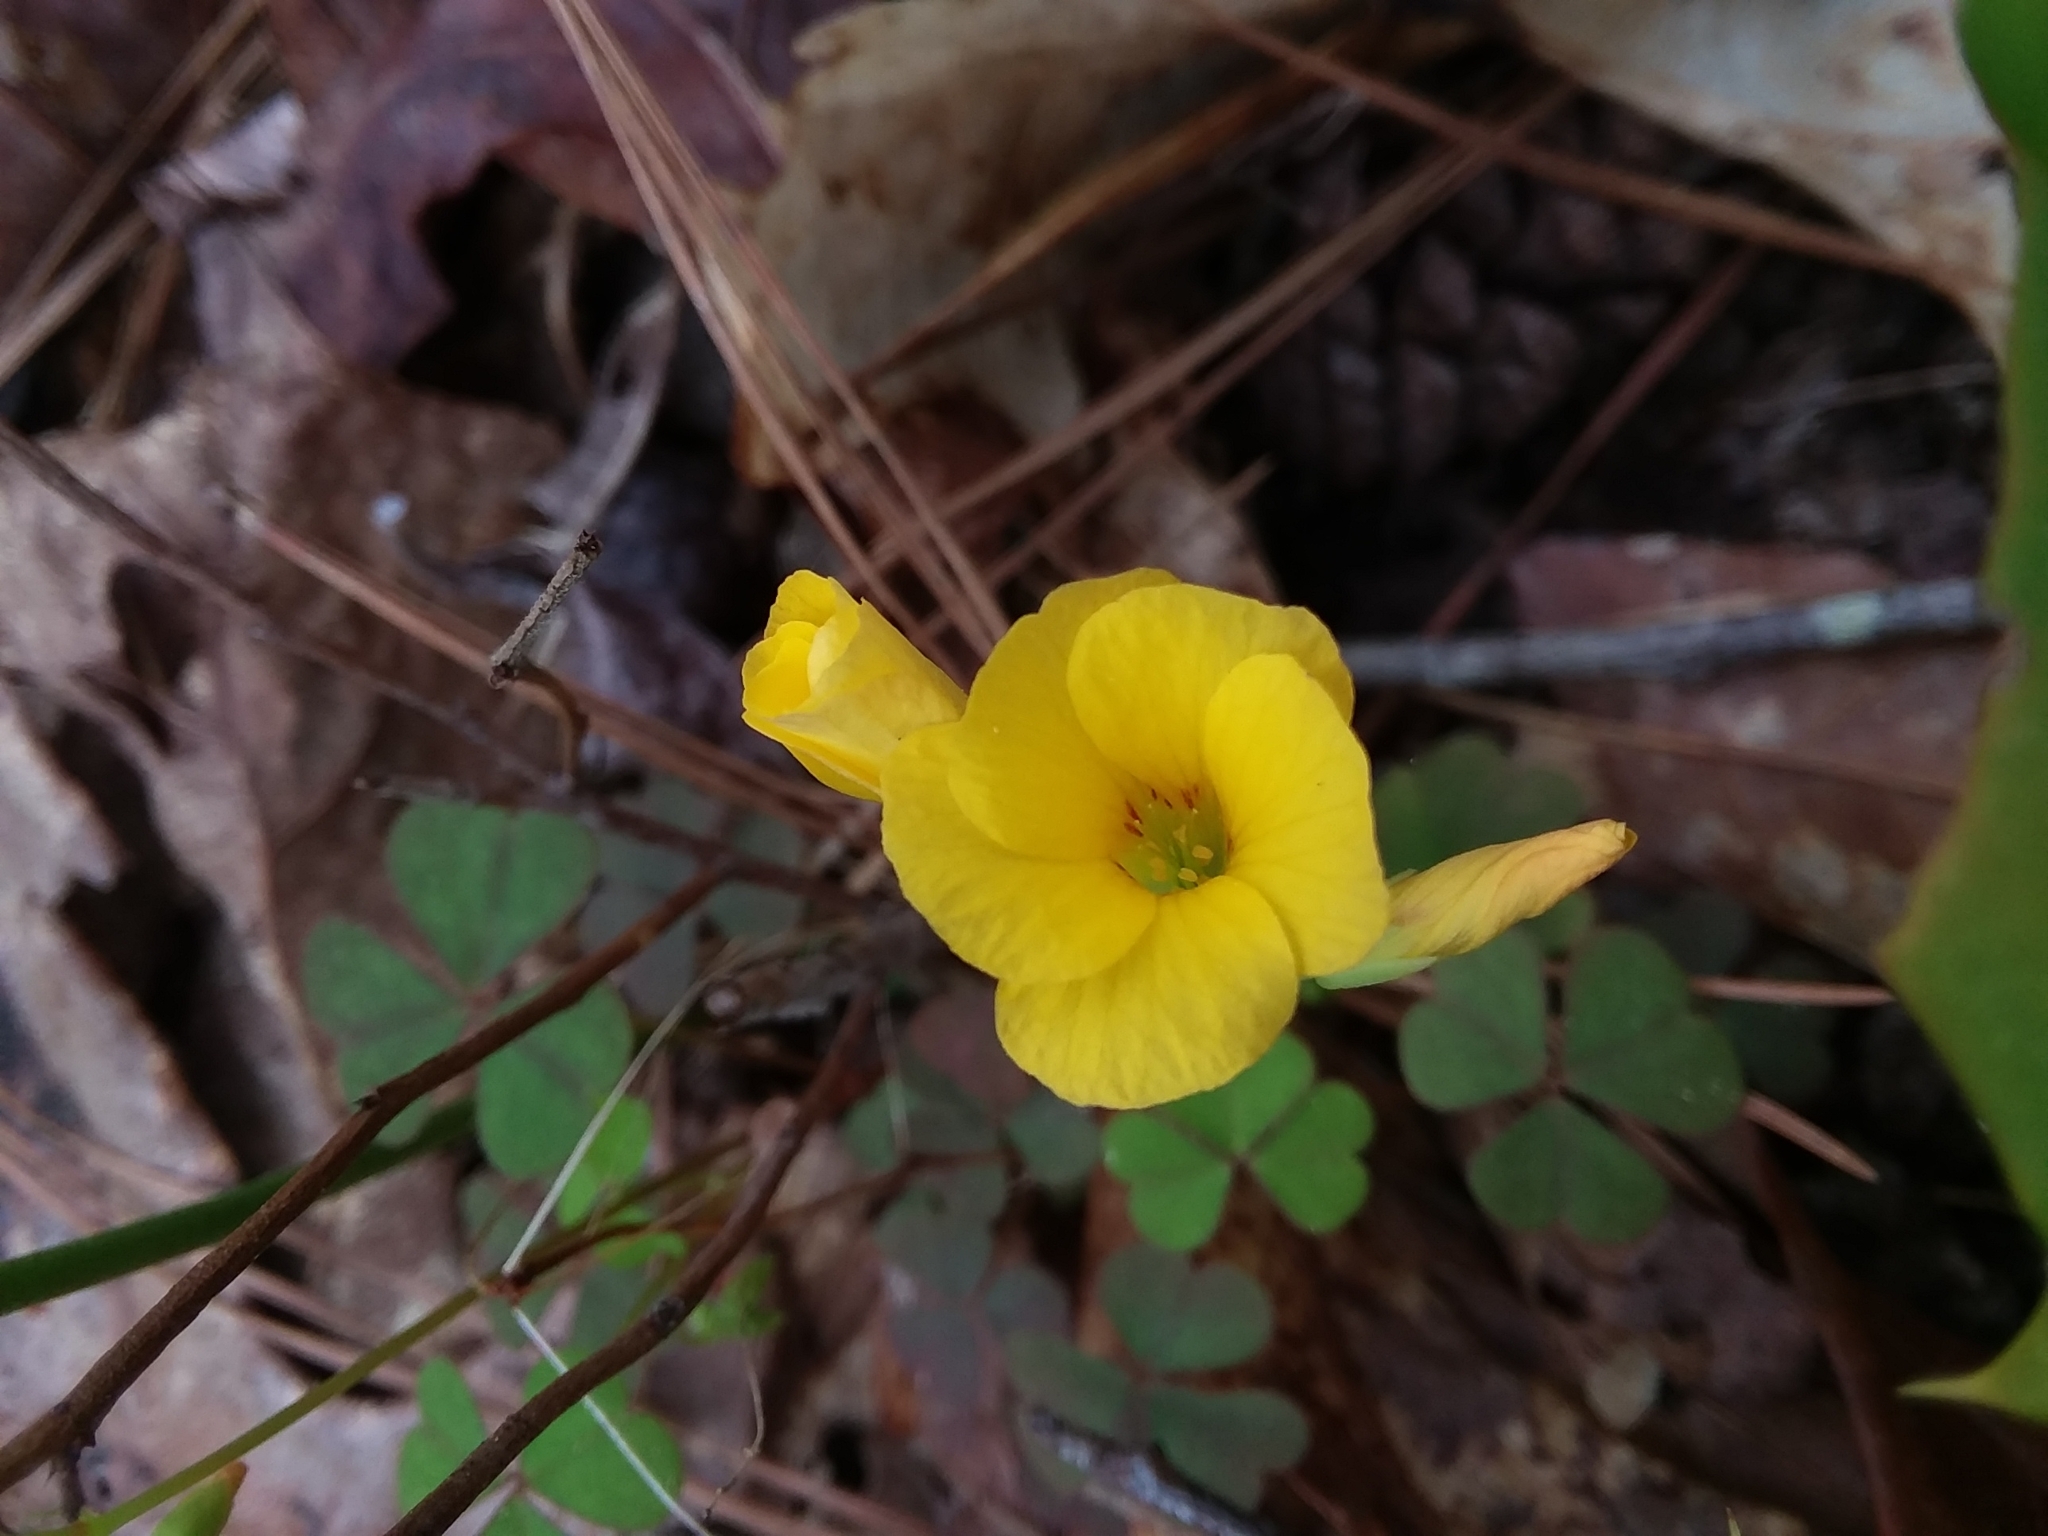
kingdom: Plantae
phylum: Tracheophyta
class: Magnoliopsida
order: Oxalidales
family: Oxalidaceae
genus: Oxalis
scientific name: Oxalis colorea
